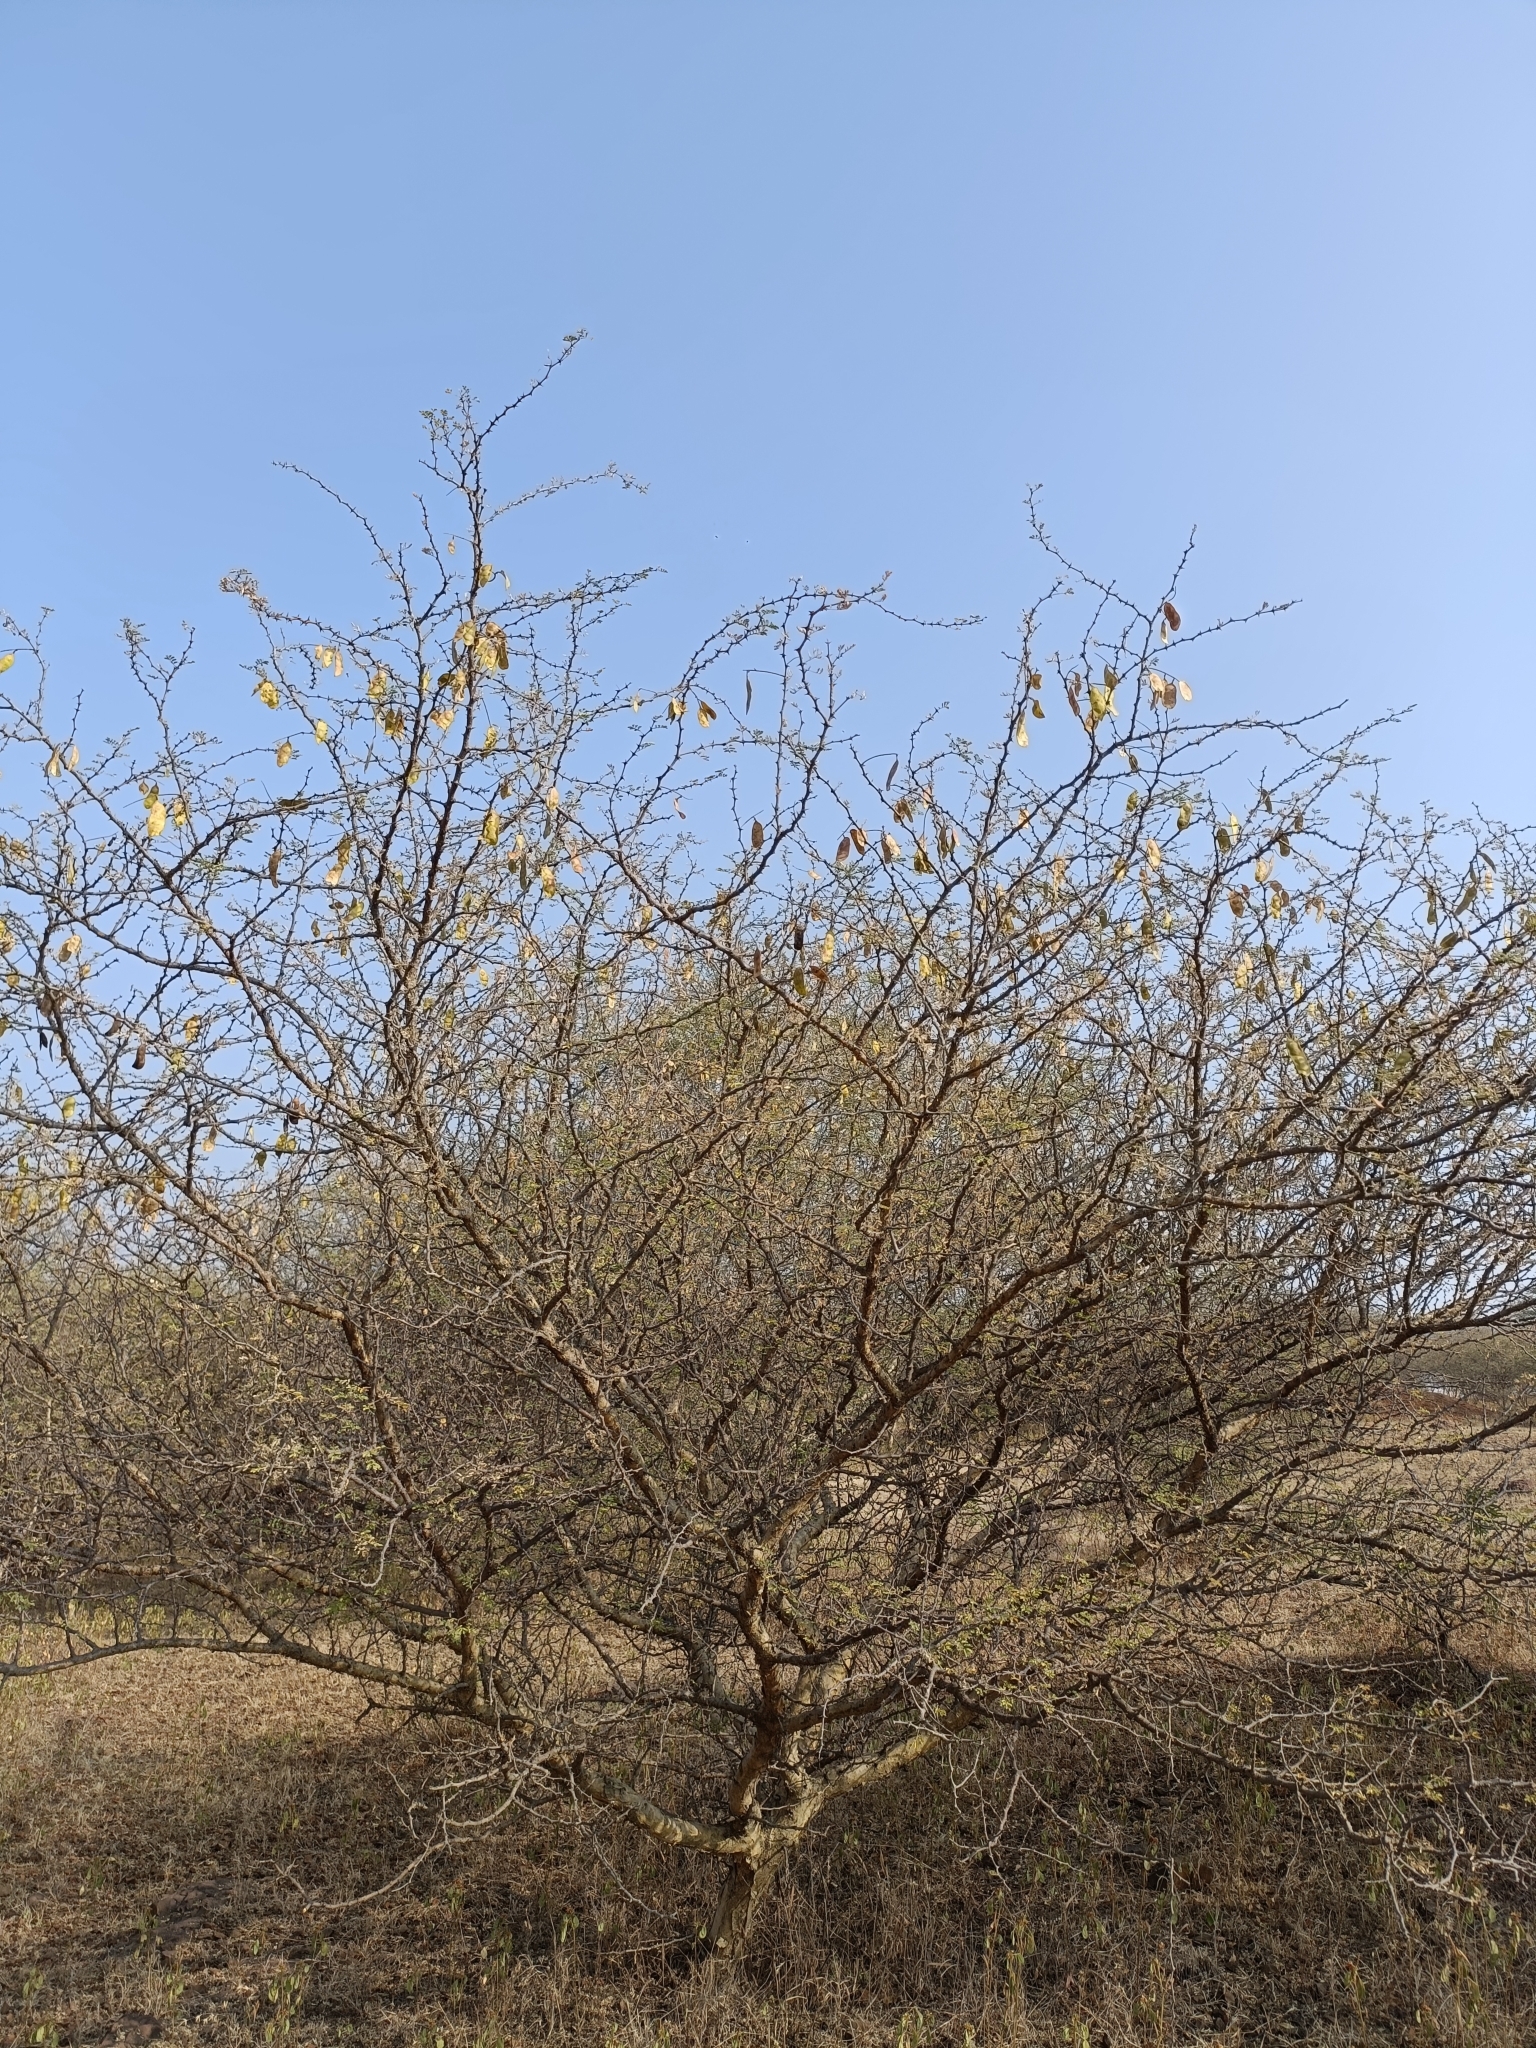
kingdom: Plantae
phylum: Tracheophyta
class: Magnoliopsida
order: Fabales
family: Fabaceae
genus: Senegalia
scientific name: Senegalia senegal
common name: Senegal-gum
